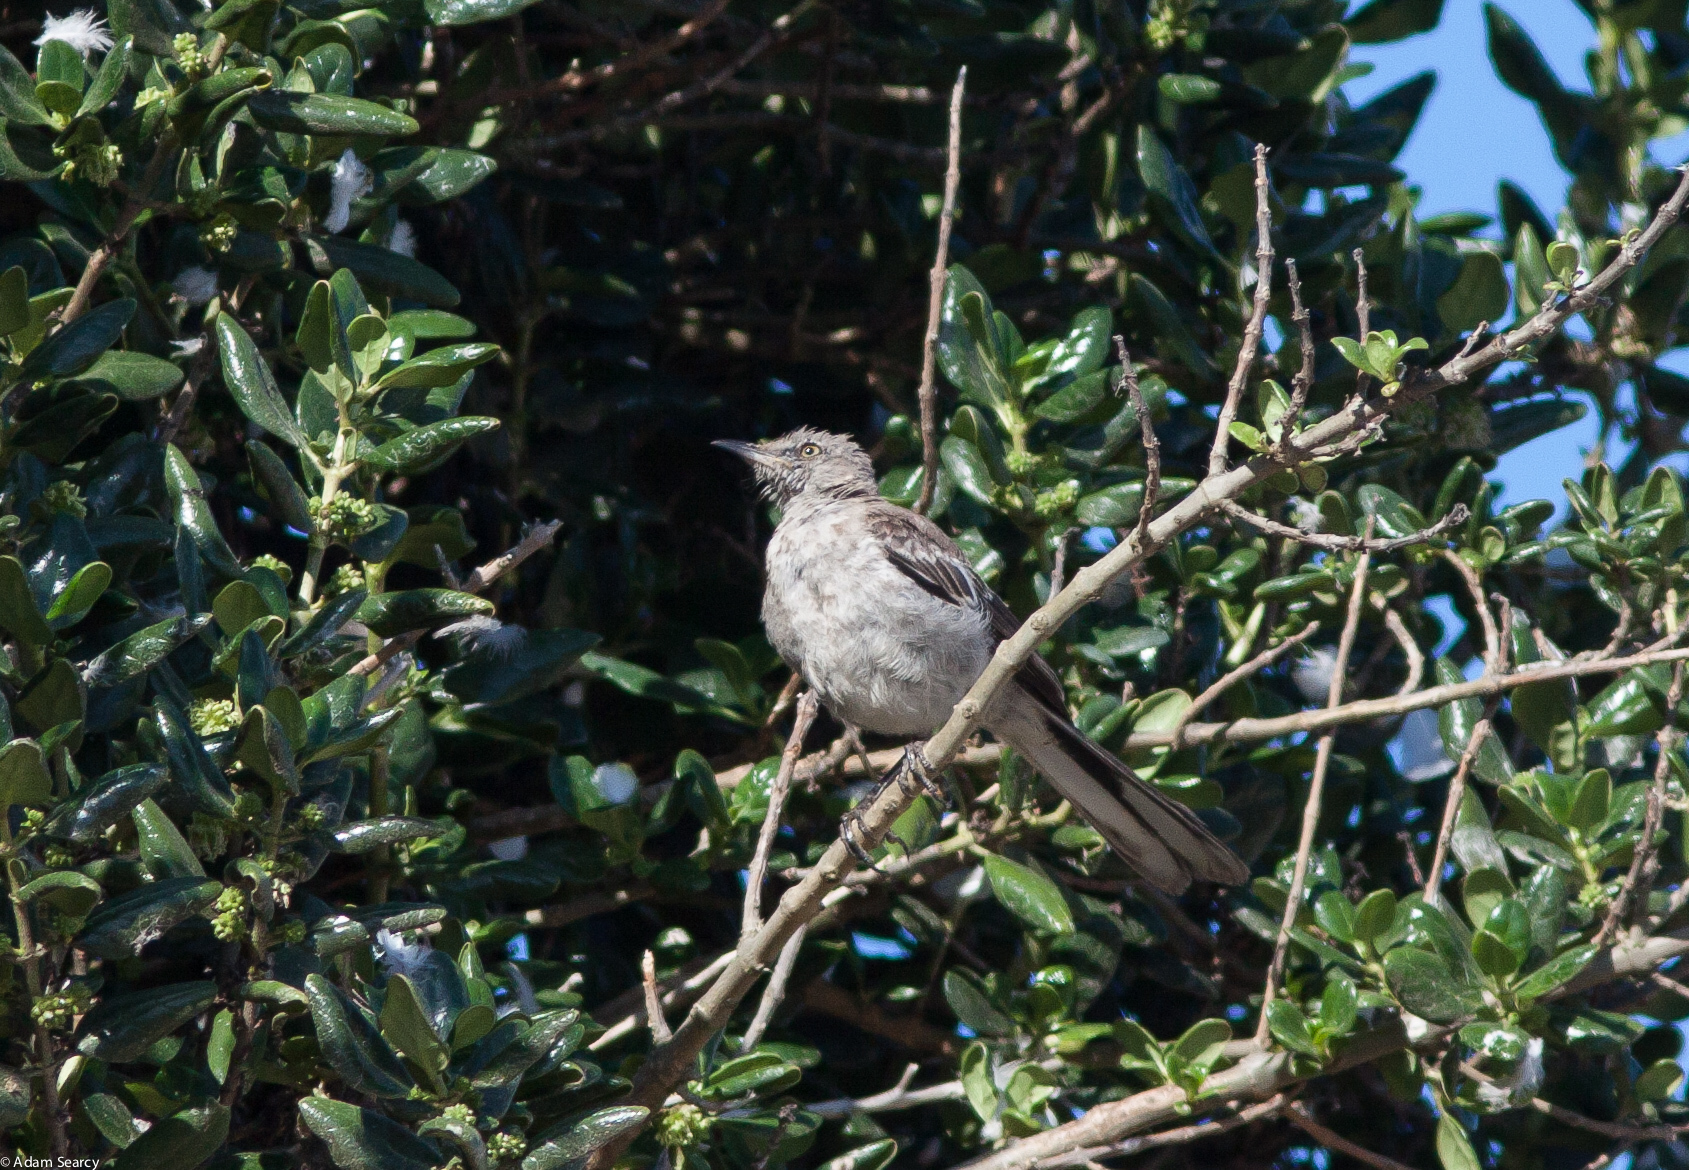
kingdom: Animalia
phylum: Chordata
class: Aves
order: Passeriformes
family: Mimidae
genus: Mimus
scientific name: Mimus polyglottos
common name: Northern mockingbird
